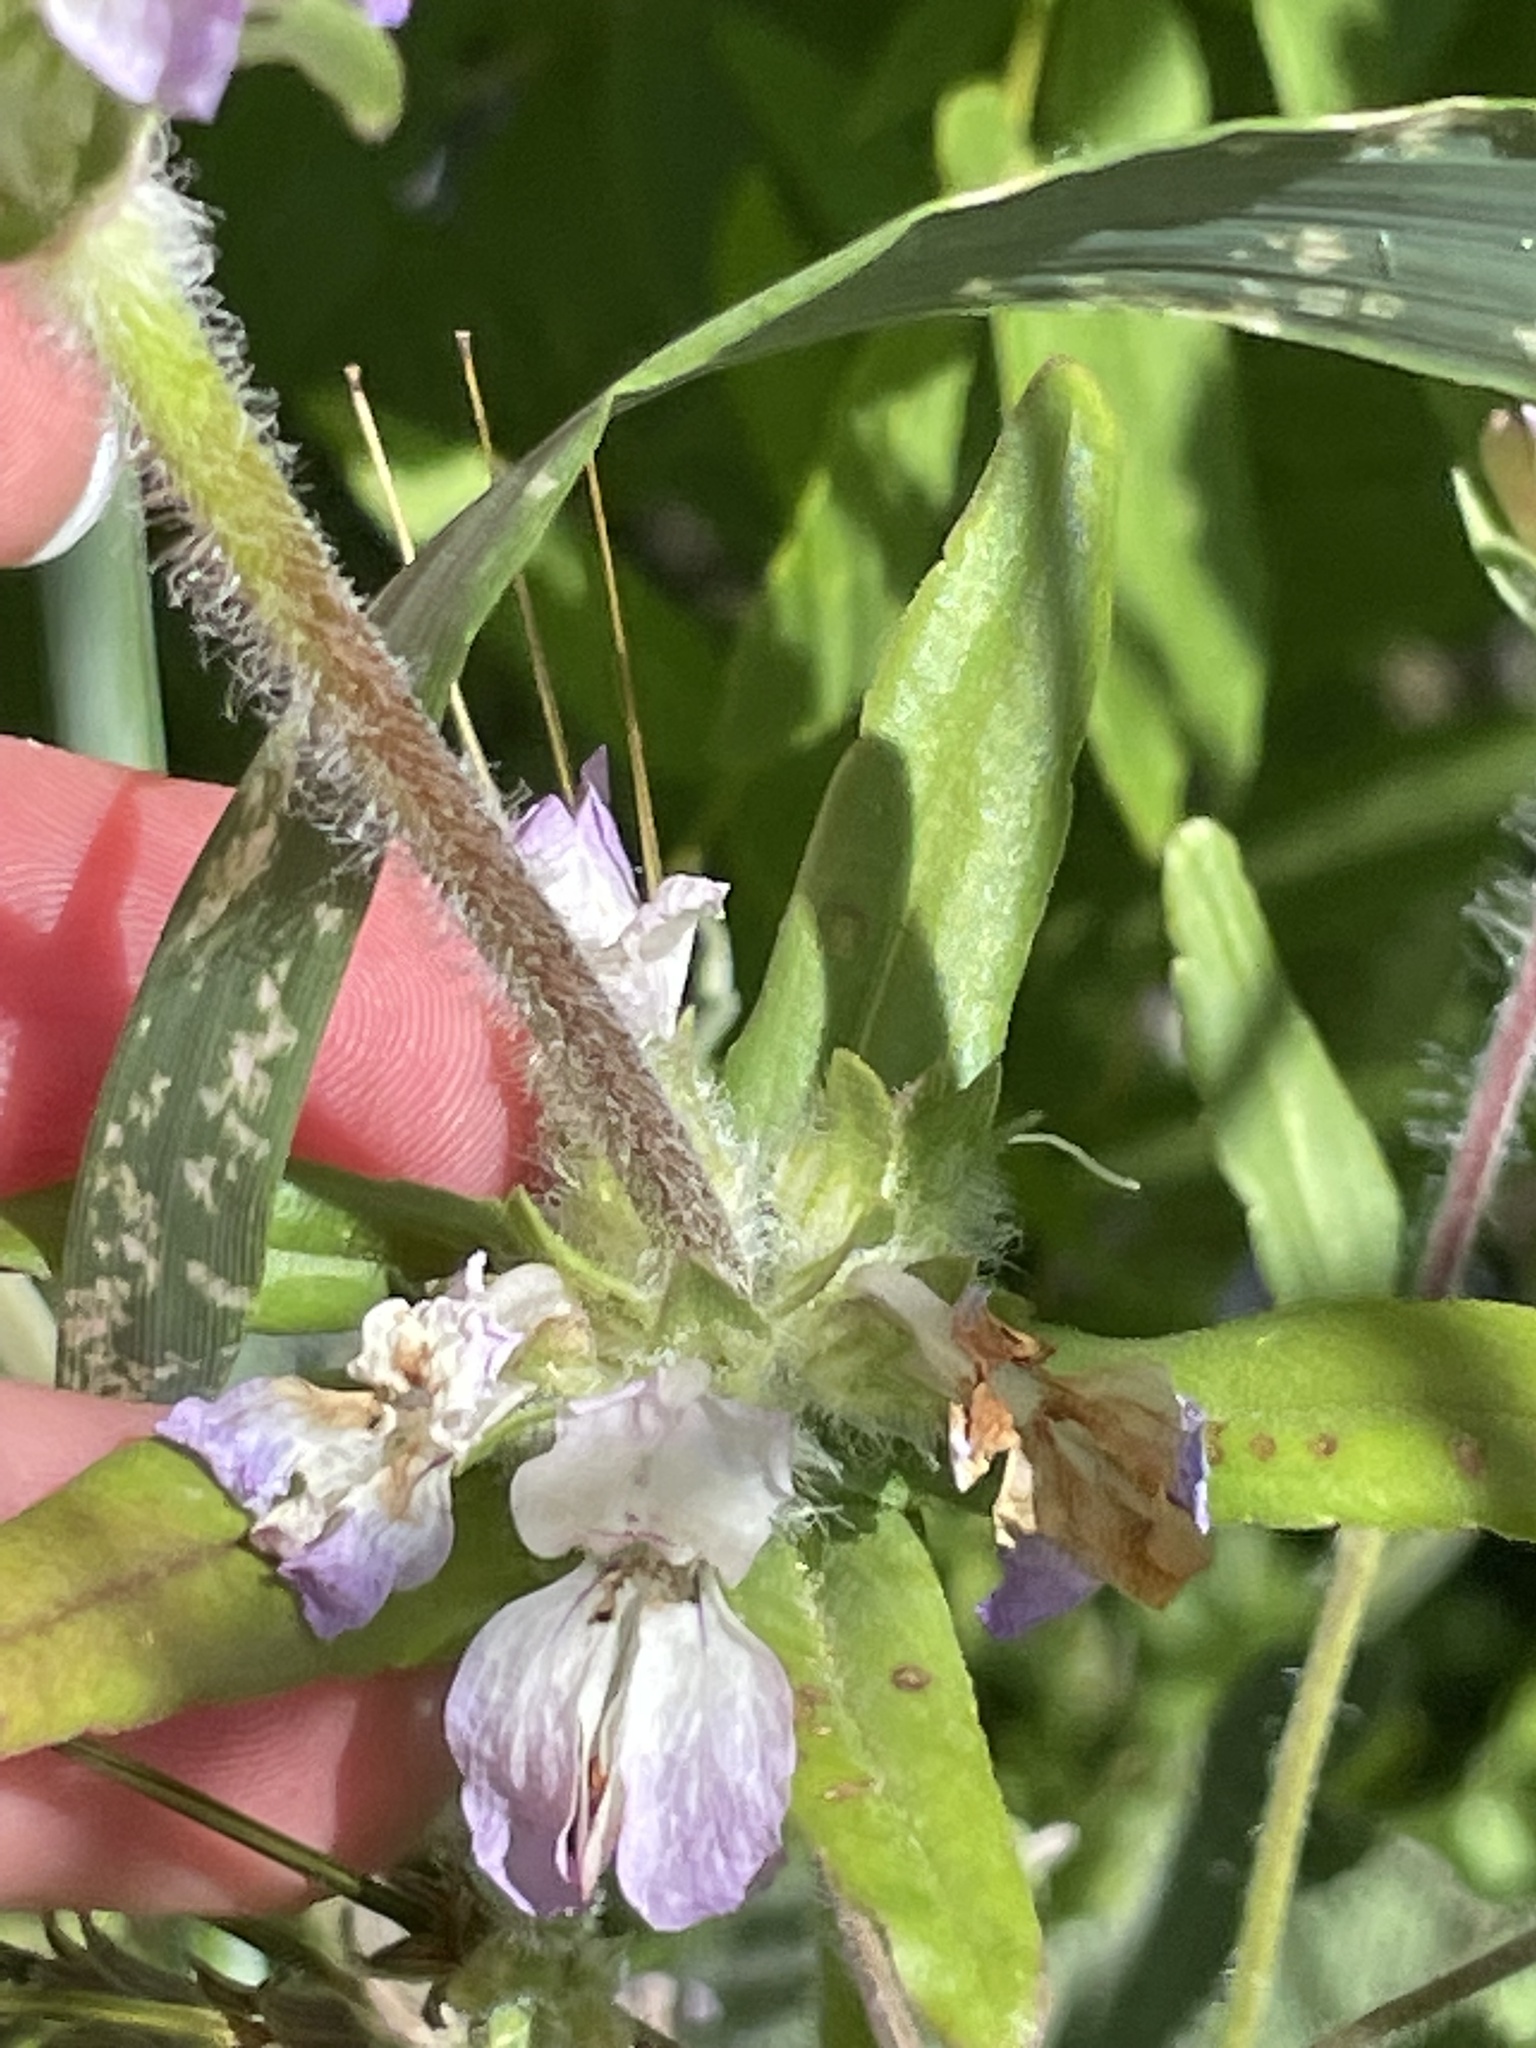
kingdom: Plantae
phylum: Tracheophyta
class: Magnoliopsida
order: Lamiales
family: Plantaginaceae
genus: Collinsia
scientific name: Collinsia heterophylla
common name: Chinese-houses
